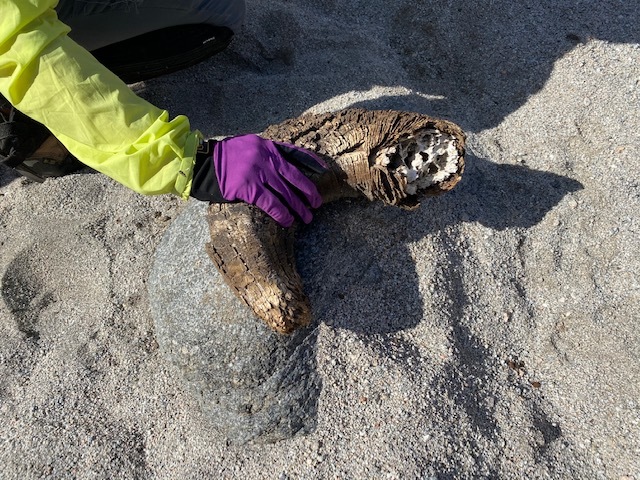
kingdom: Animalia
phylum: Chordata
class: Mammalia
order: Artiodactyla
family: Bovidae
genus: Ovis
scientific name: Ovis canadensis
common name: Bighorn sheep
